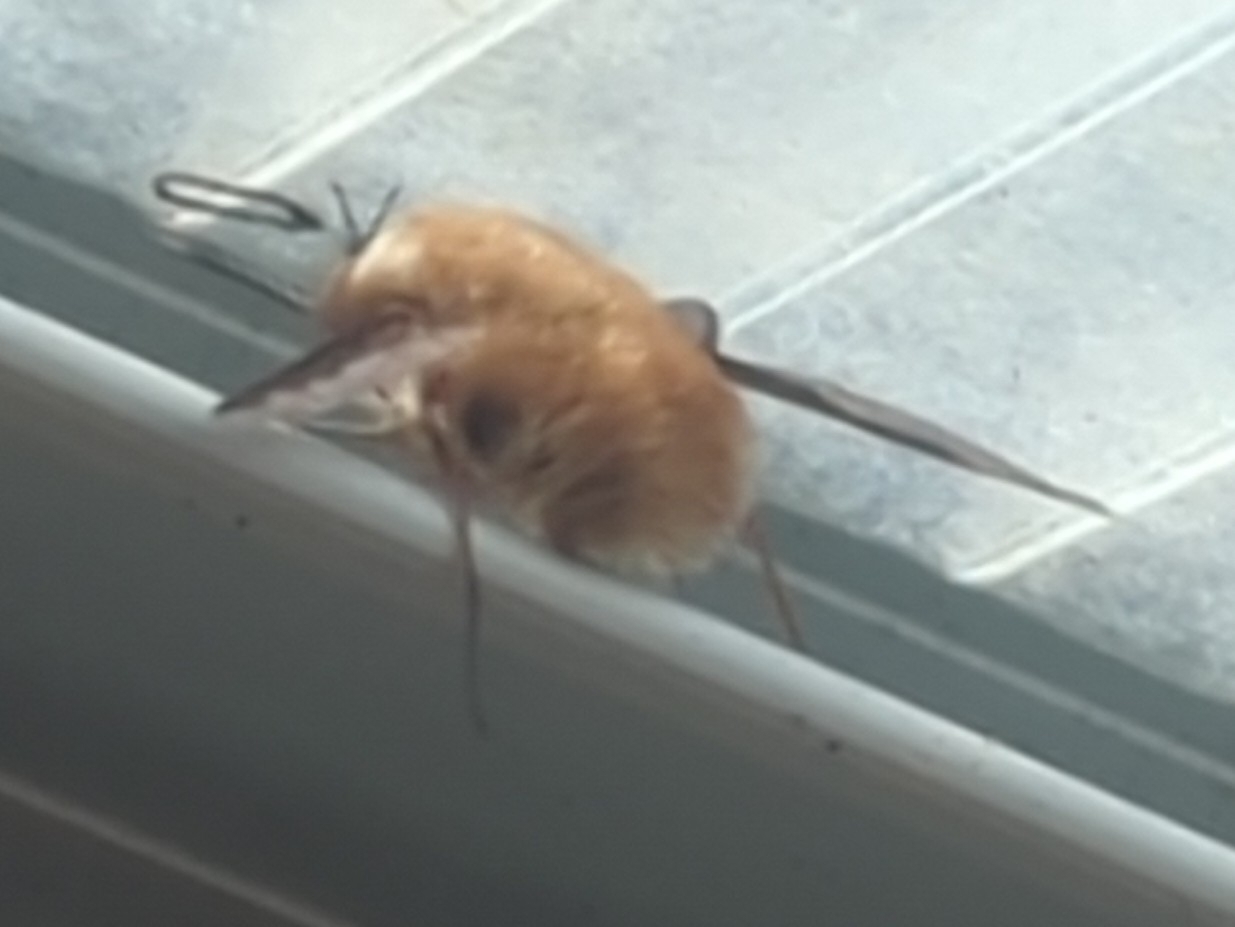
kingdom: Animalia
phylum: Arthropoda
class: Insecta
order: Diptera
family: Bombyliidae
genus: Bombylius
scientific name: Bombylius major
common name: Bee fly
